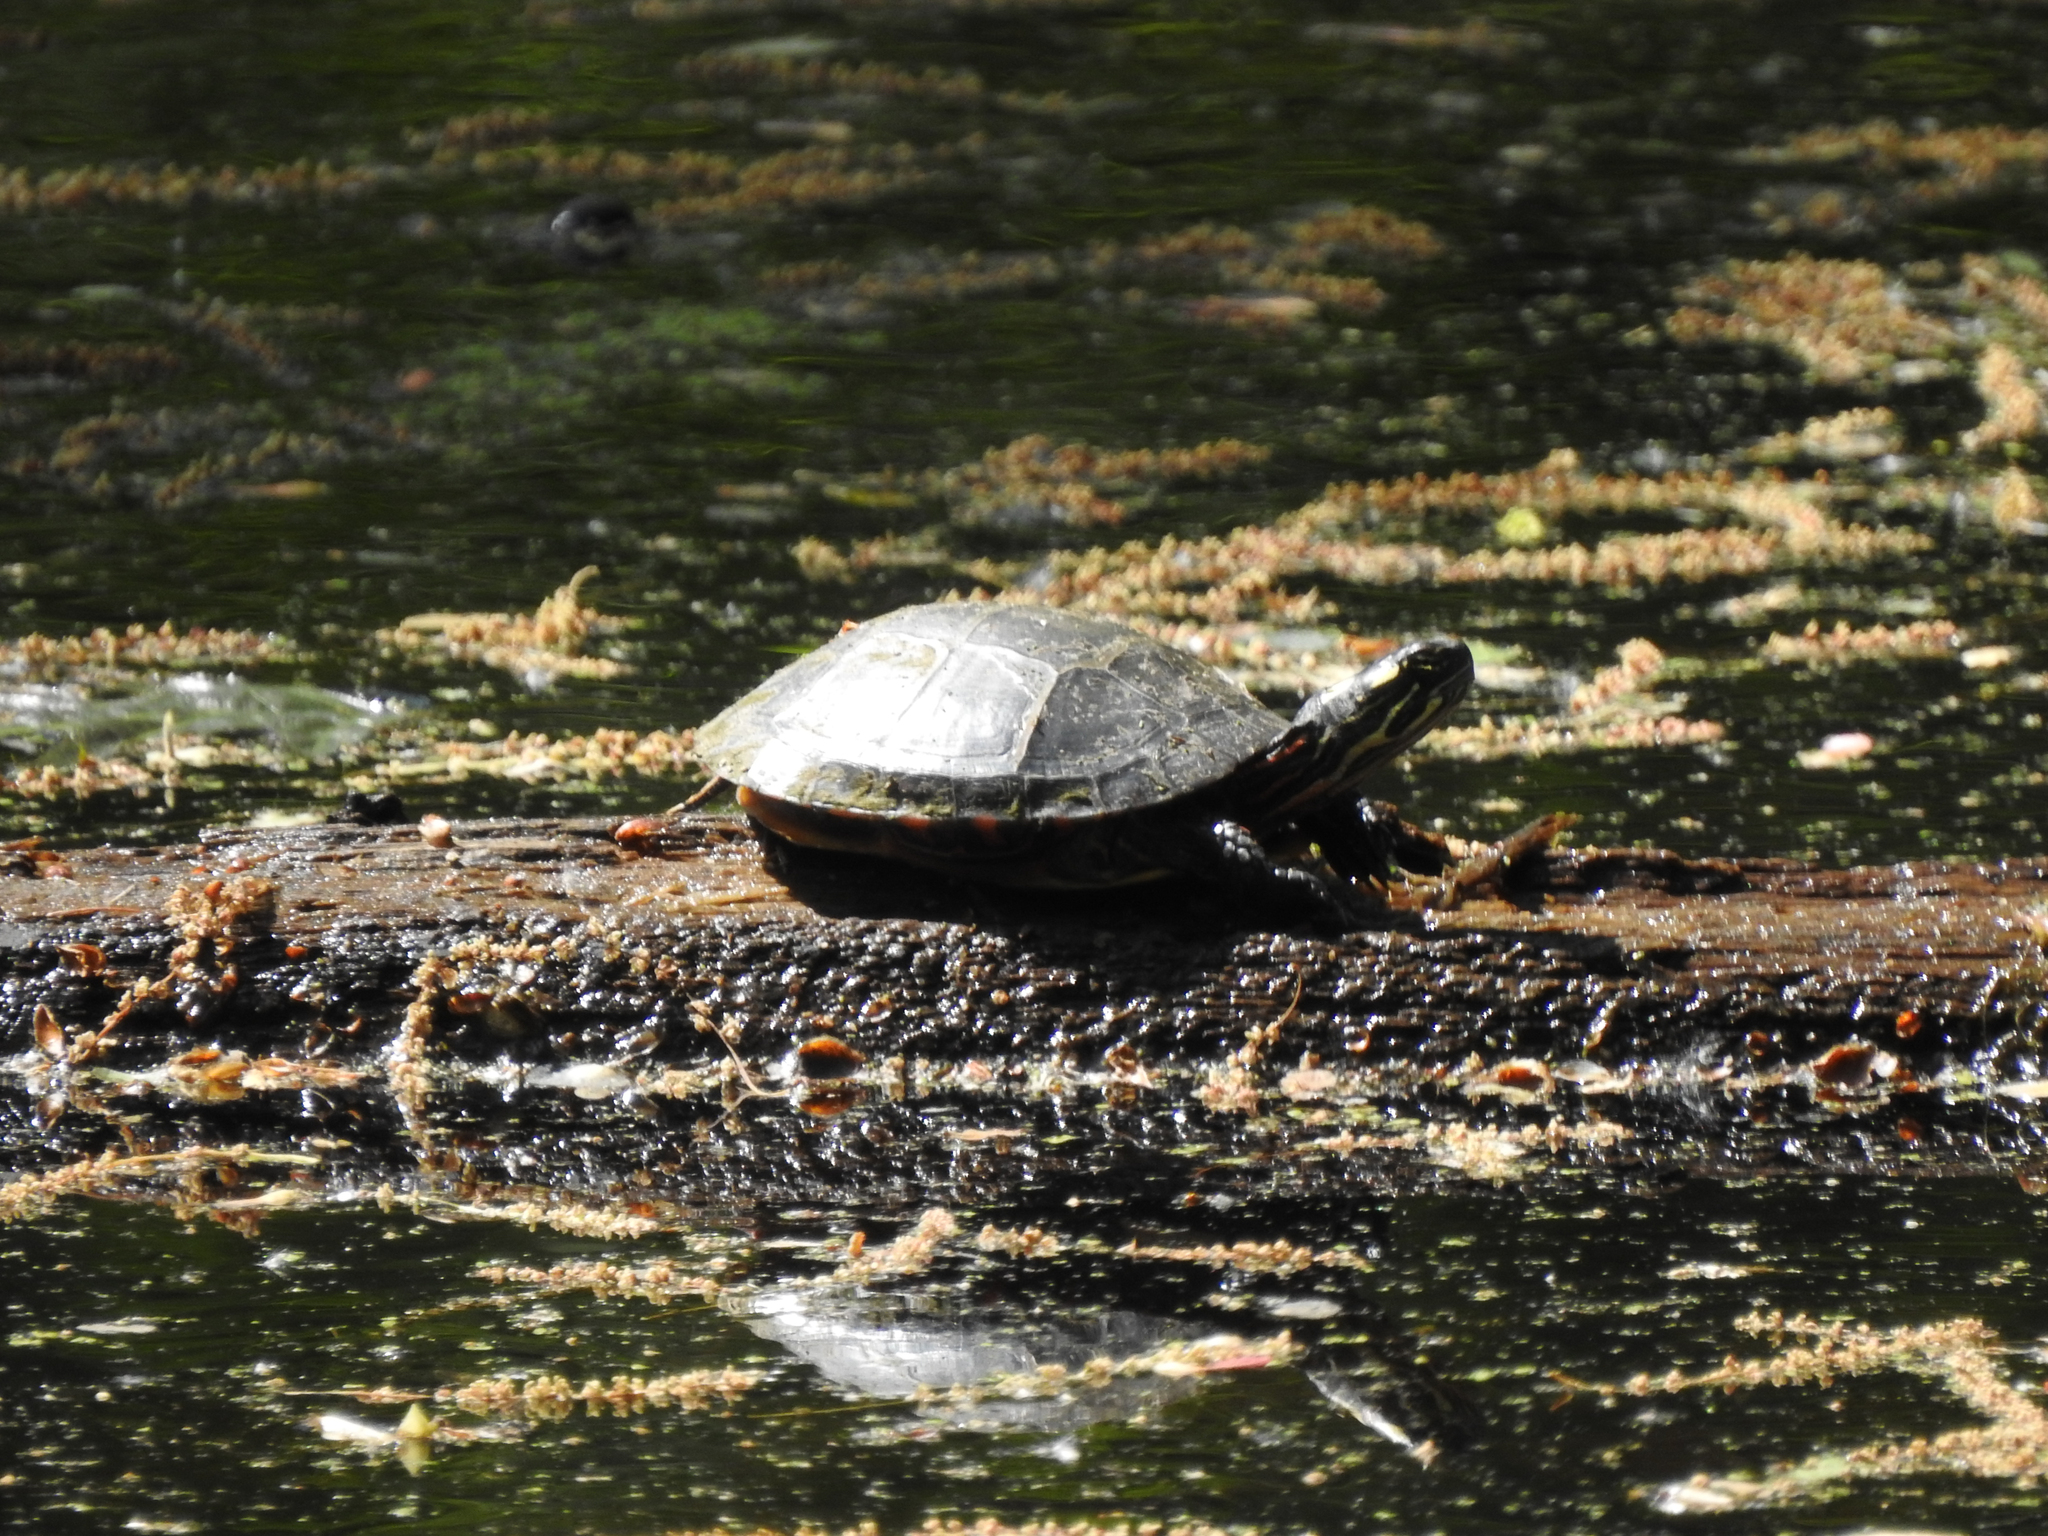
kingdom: Animalia
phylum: Chordata
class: Testudines
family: Emydidae
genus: Chrysemys
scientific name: Chrysemys picta
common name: Painted turtle
